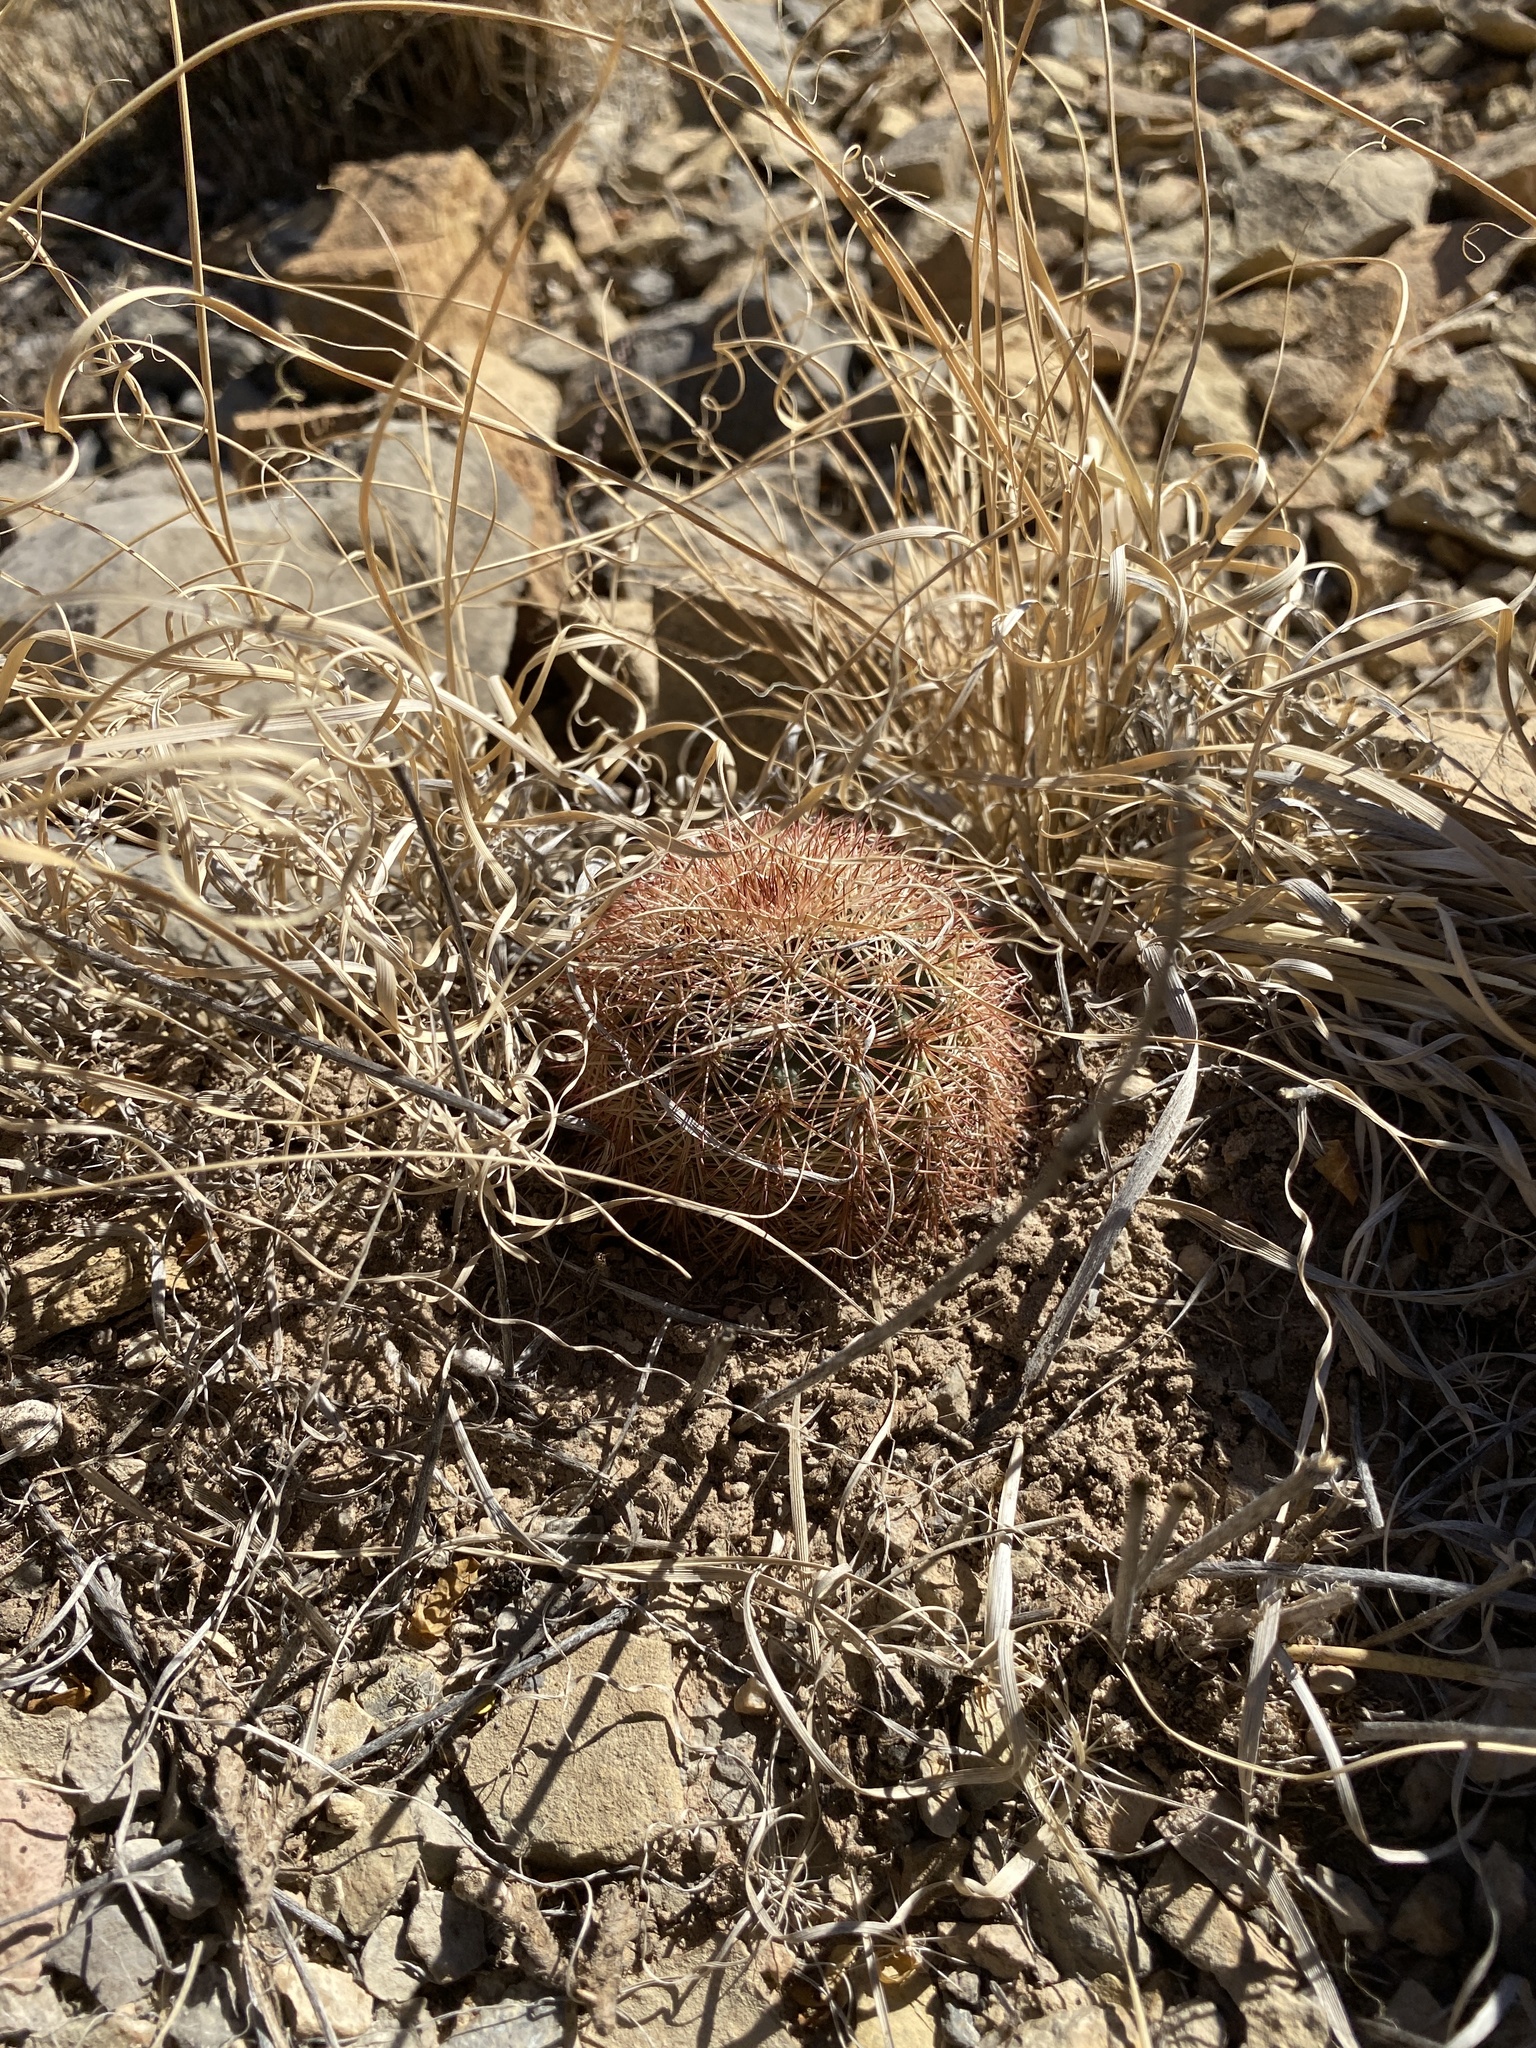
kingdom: Plantae
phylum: Tracheophyta
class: Magnoliopsida
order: Caryophyllales
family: Cactaceae
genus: Echinocereus
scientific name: Echinocereus dasyacanthus
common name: Spiny hedgehog cactus
